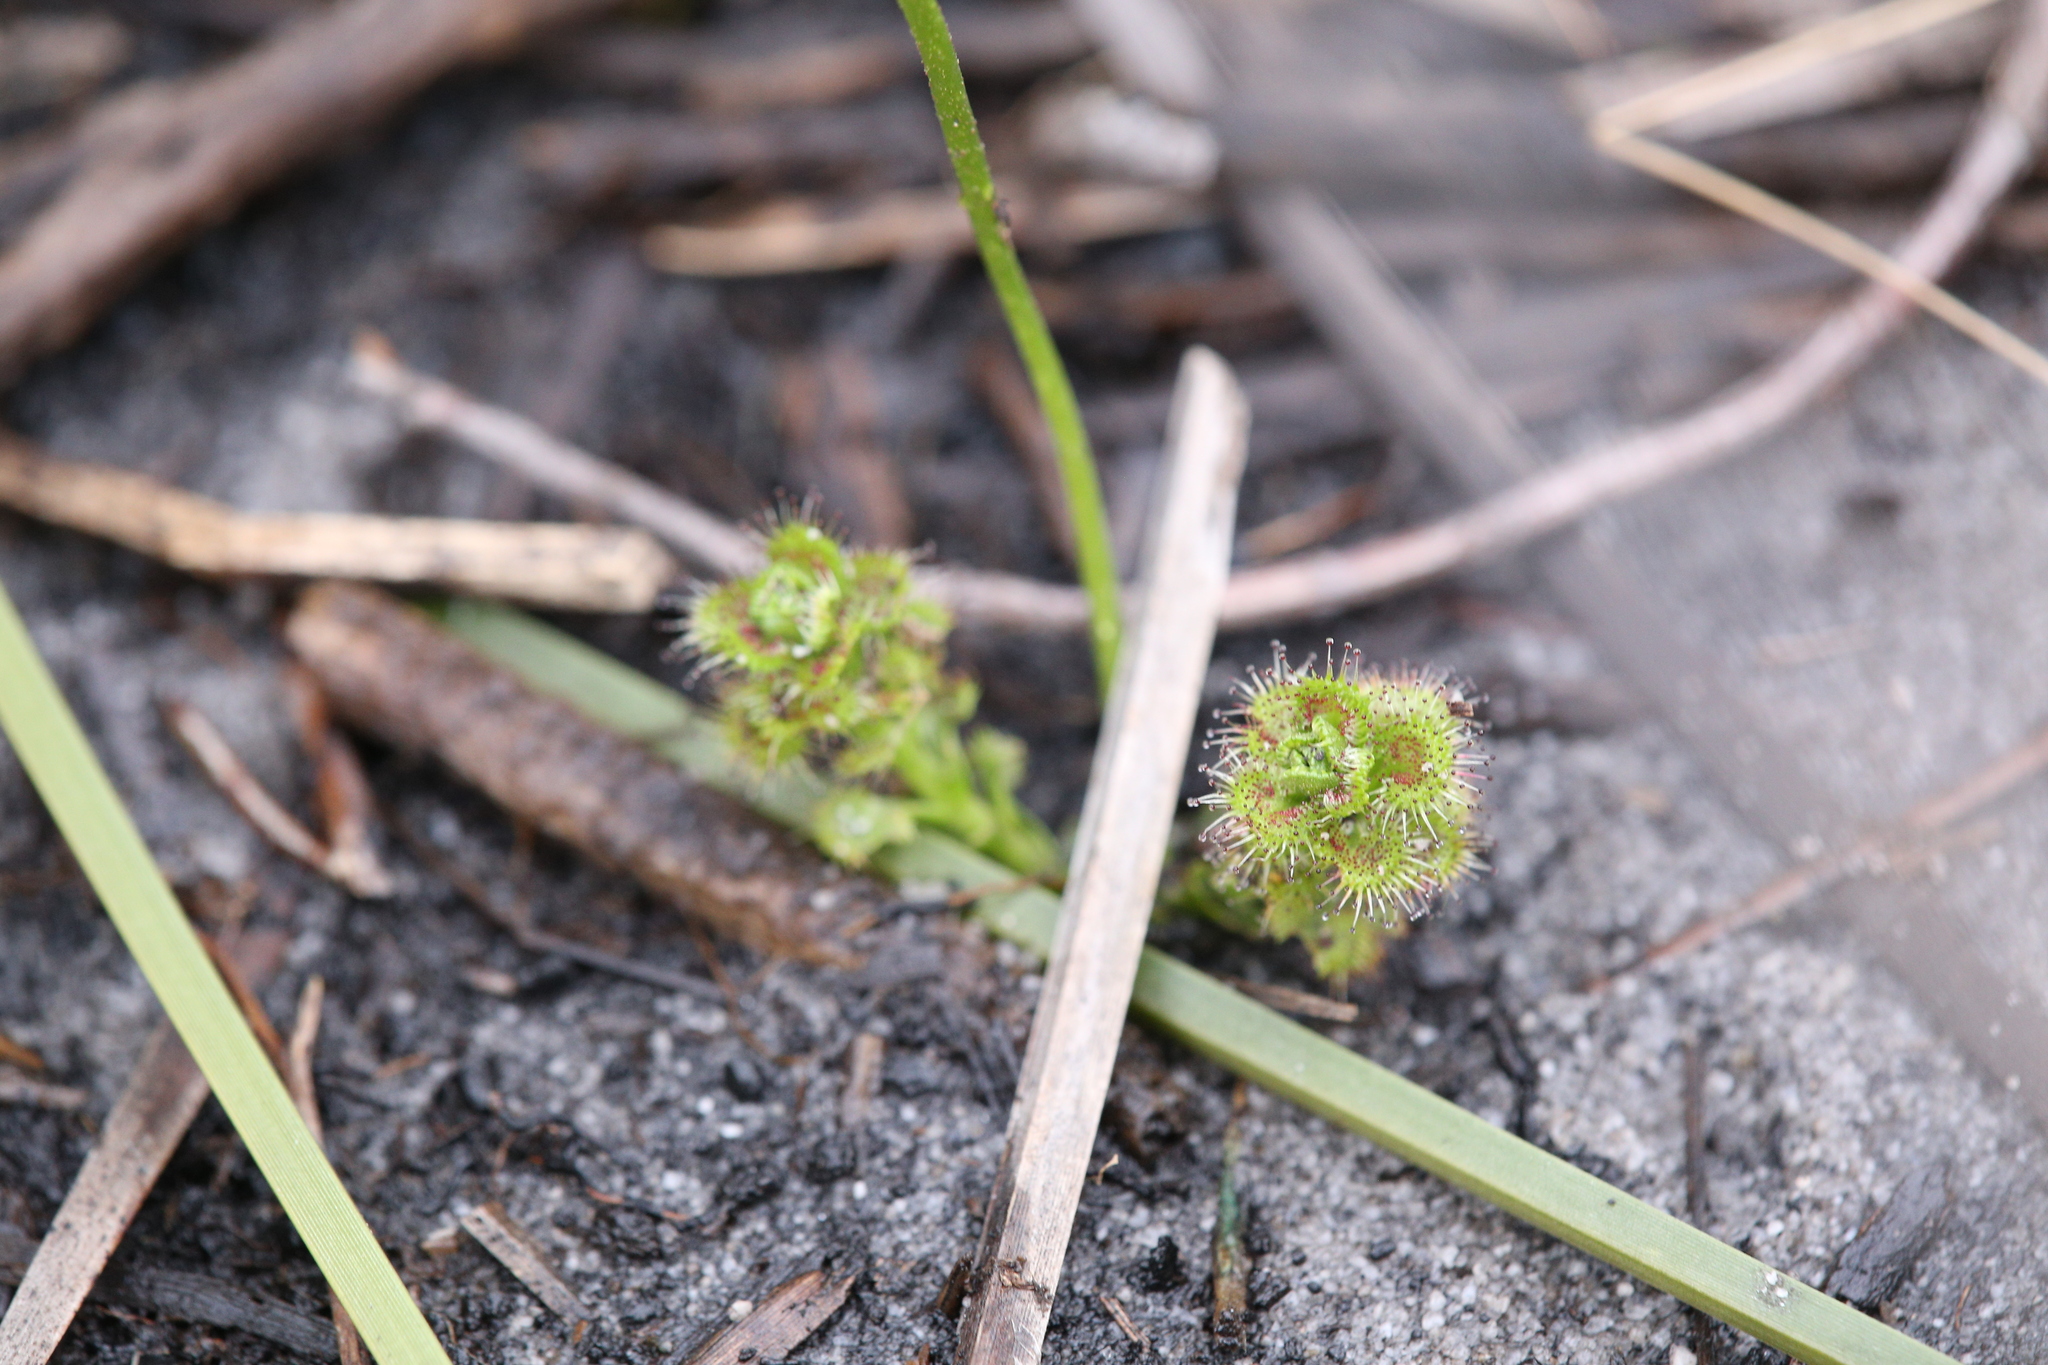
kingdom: Plantae
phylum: Tracheophyta
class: Magnoliopsida
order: Caryophyllales
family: Droseraceae
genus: Drosera
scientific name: Drosera stolonifera
